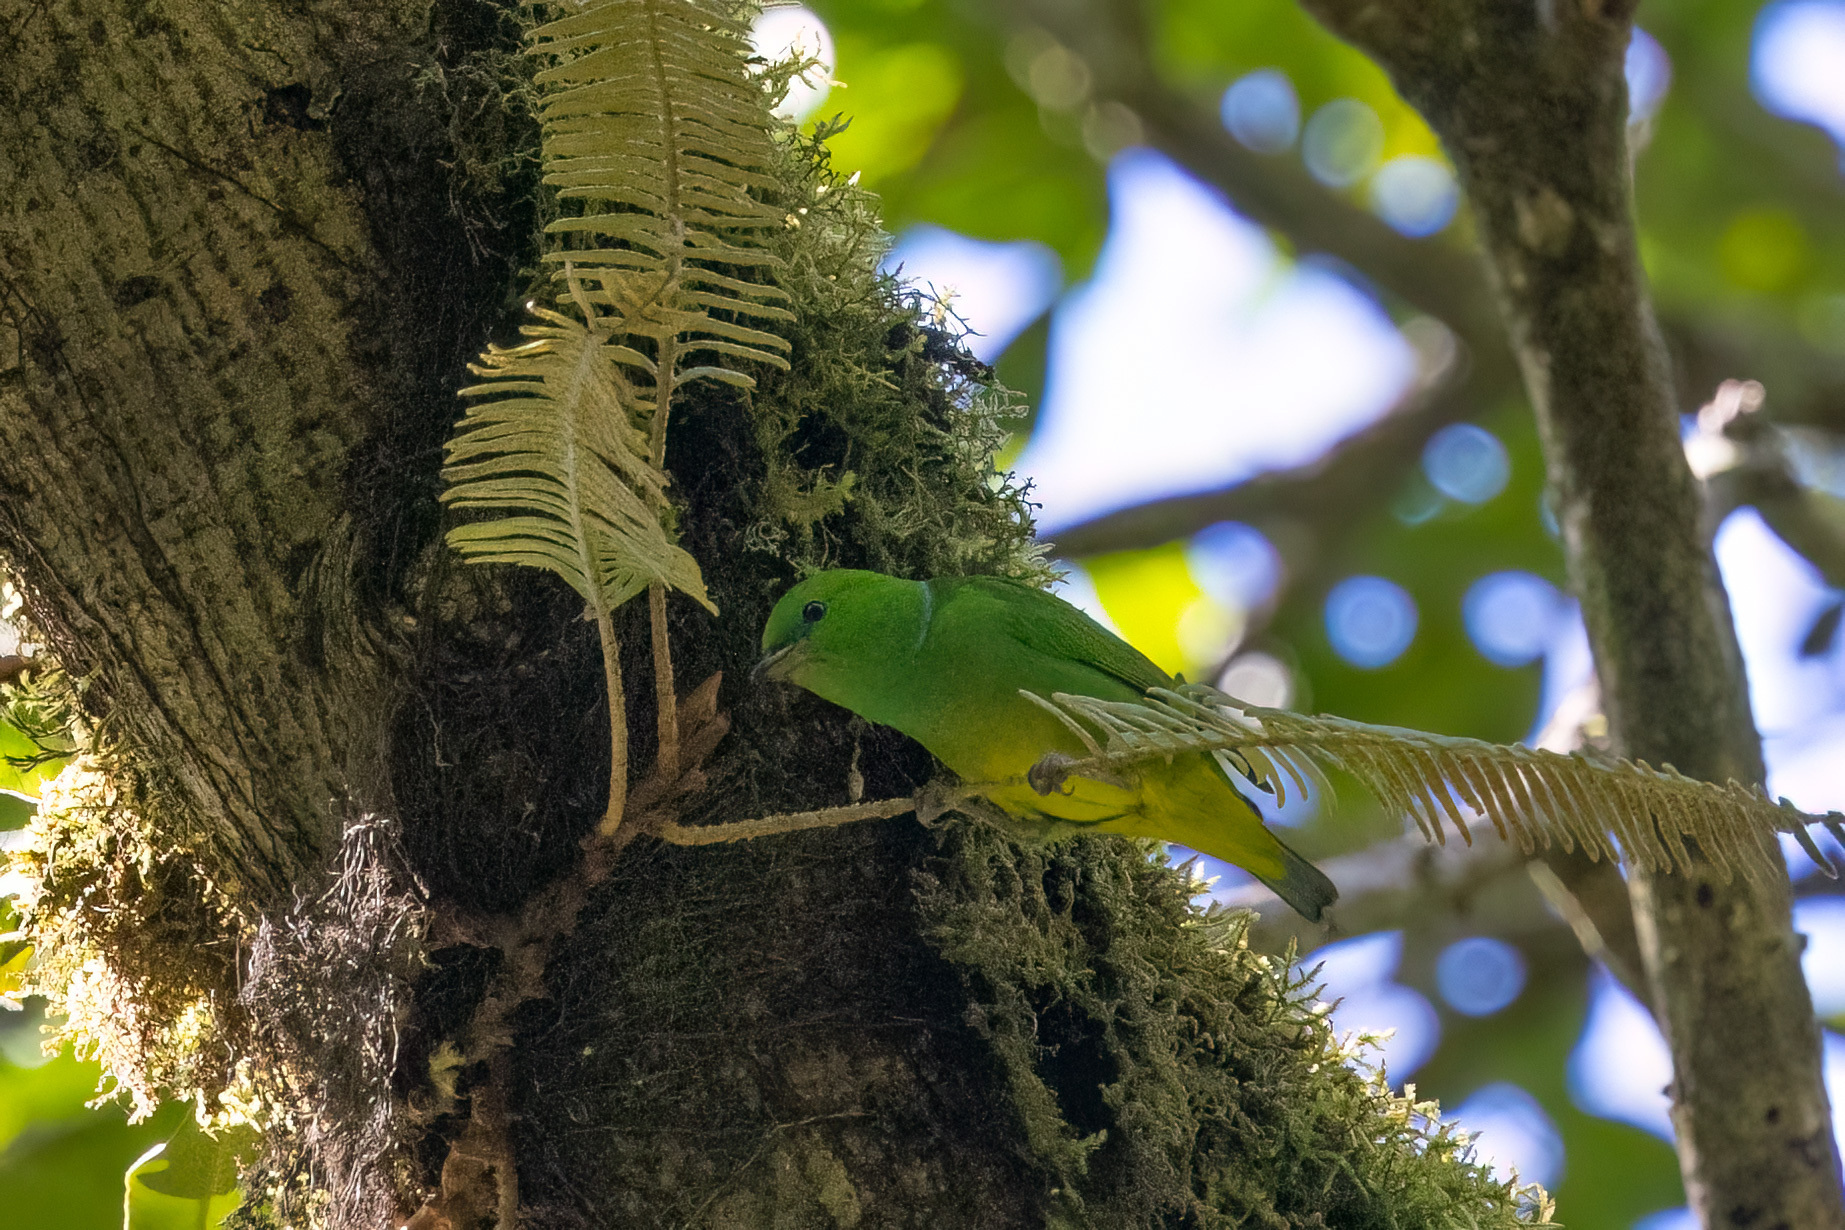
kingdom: Animalia
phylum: Chordata
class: Aves
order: Passeriformes
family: Fringillidae
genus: Chlorophonia
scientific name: Chlorophonia callophrys
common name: Golden-browed chlorophonia
